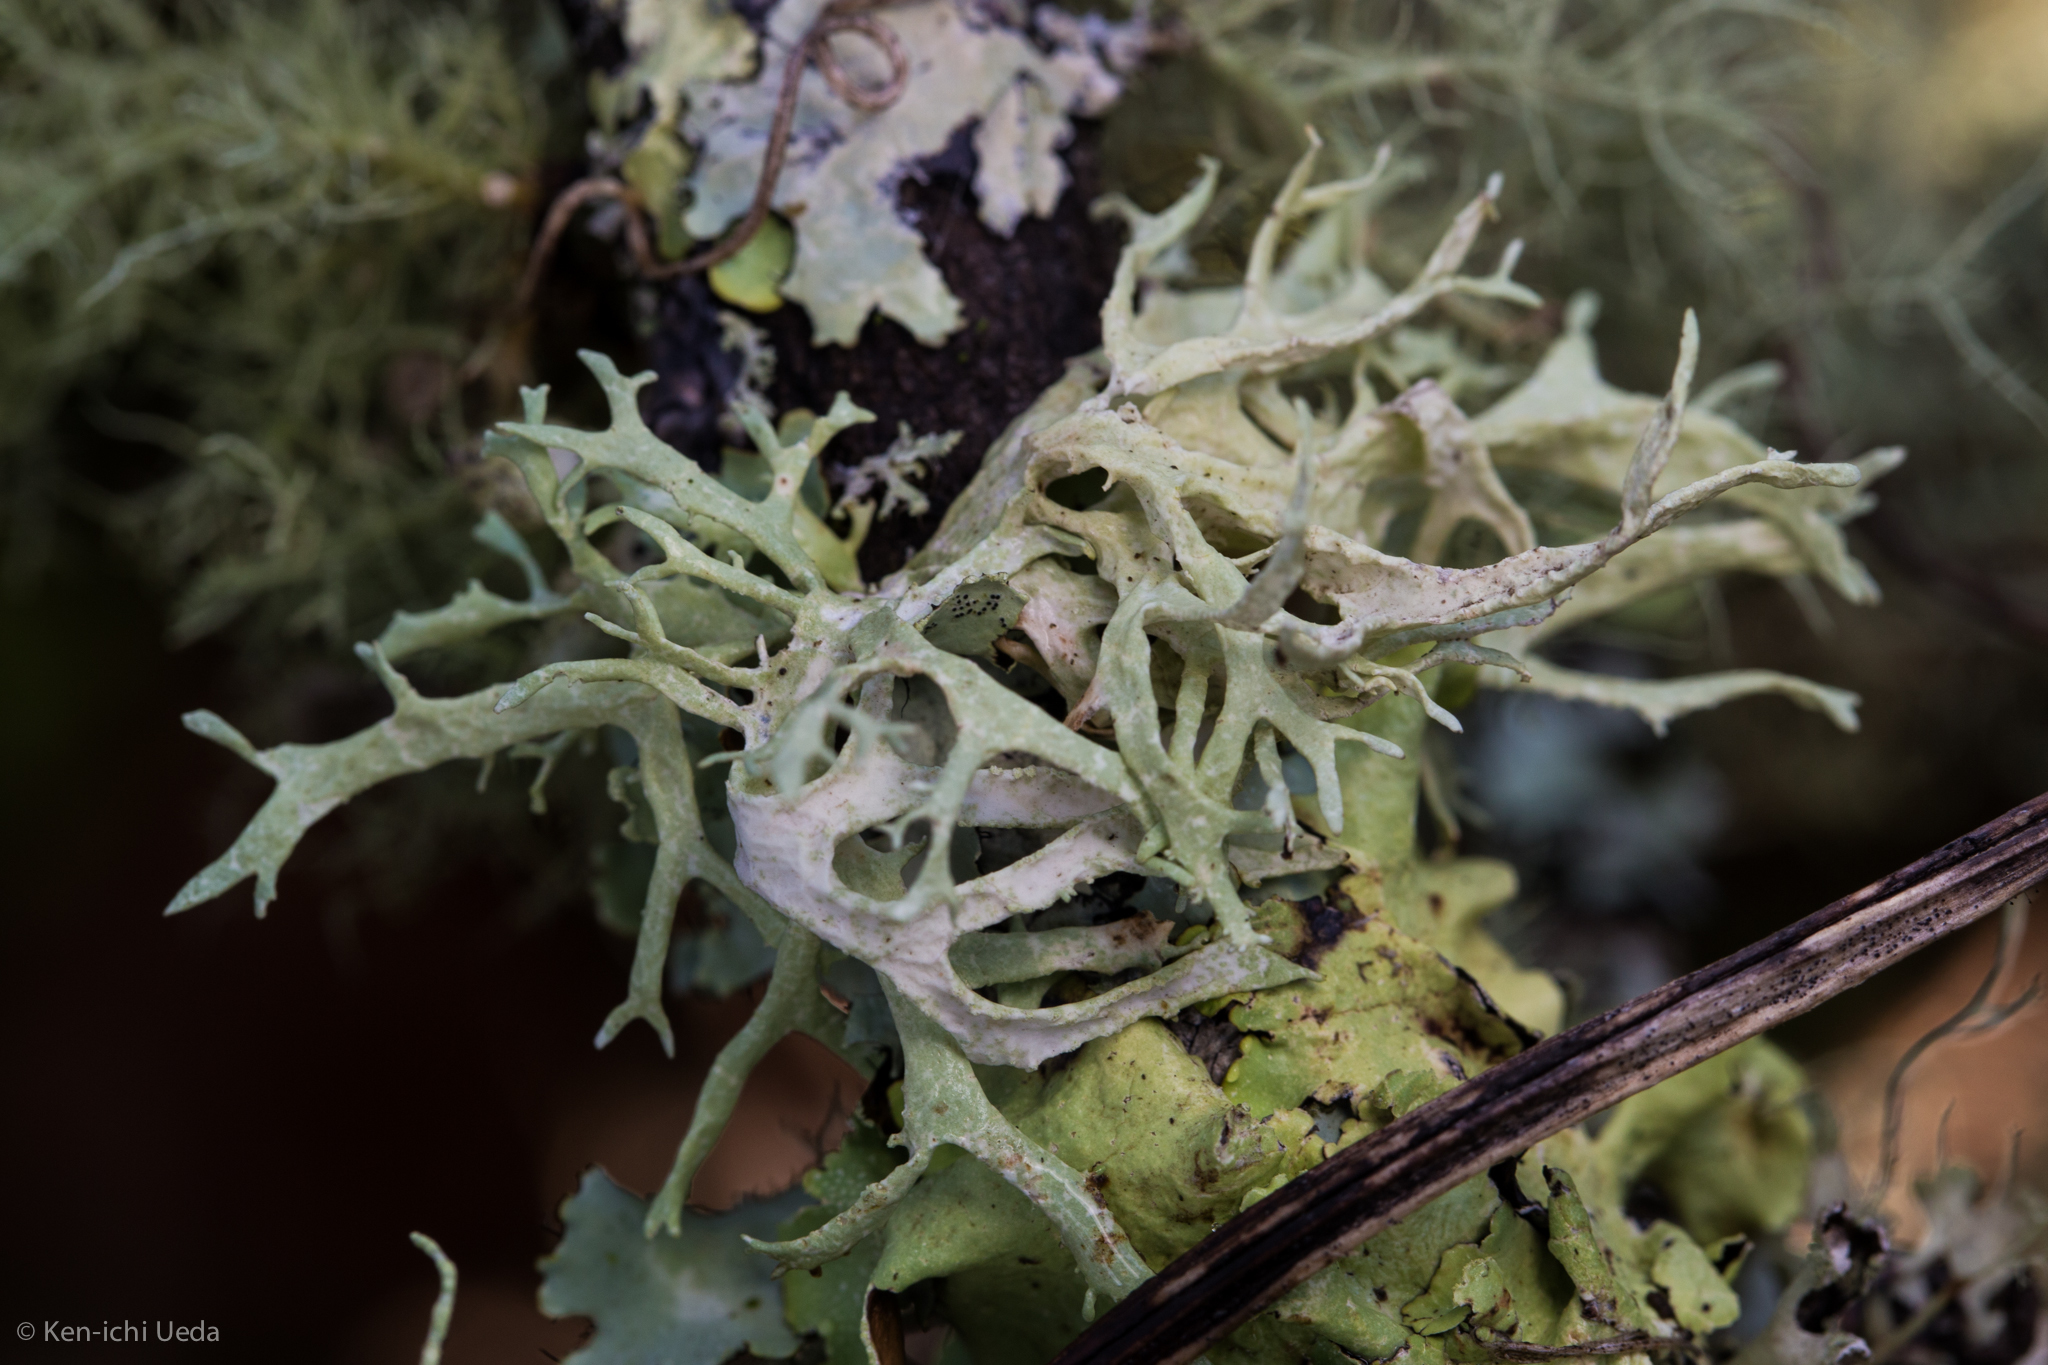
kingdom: Fungi
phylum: Ascomycota
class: Lecanoromycetes
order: Lecanorales
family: Parmeliaceae
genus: Evernia
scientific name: Evernia prunastri
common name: Oak moss
